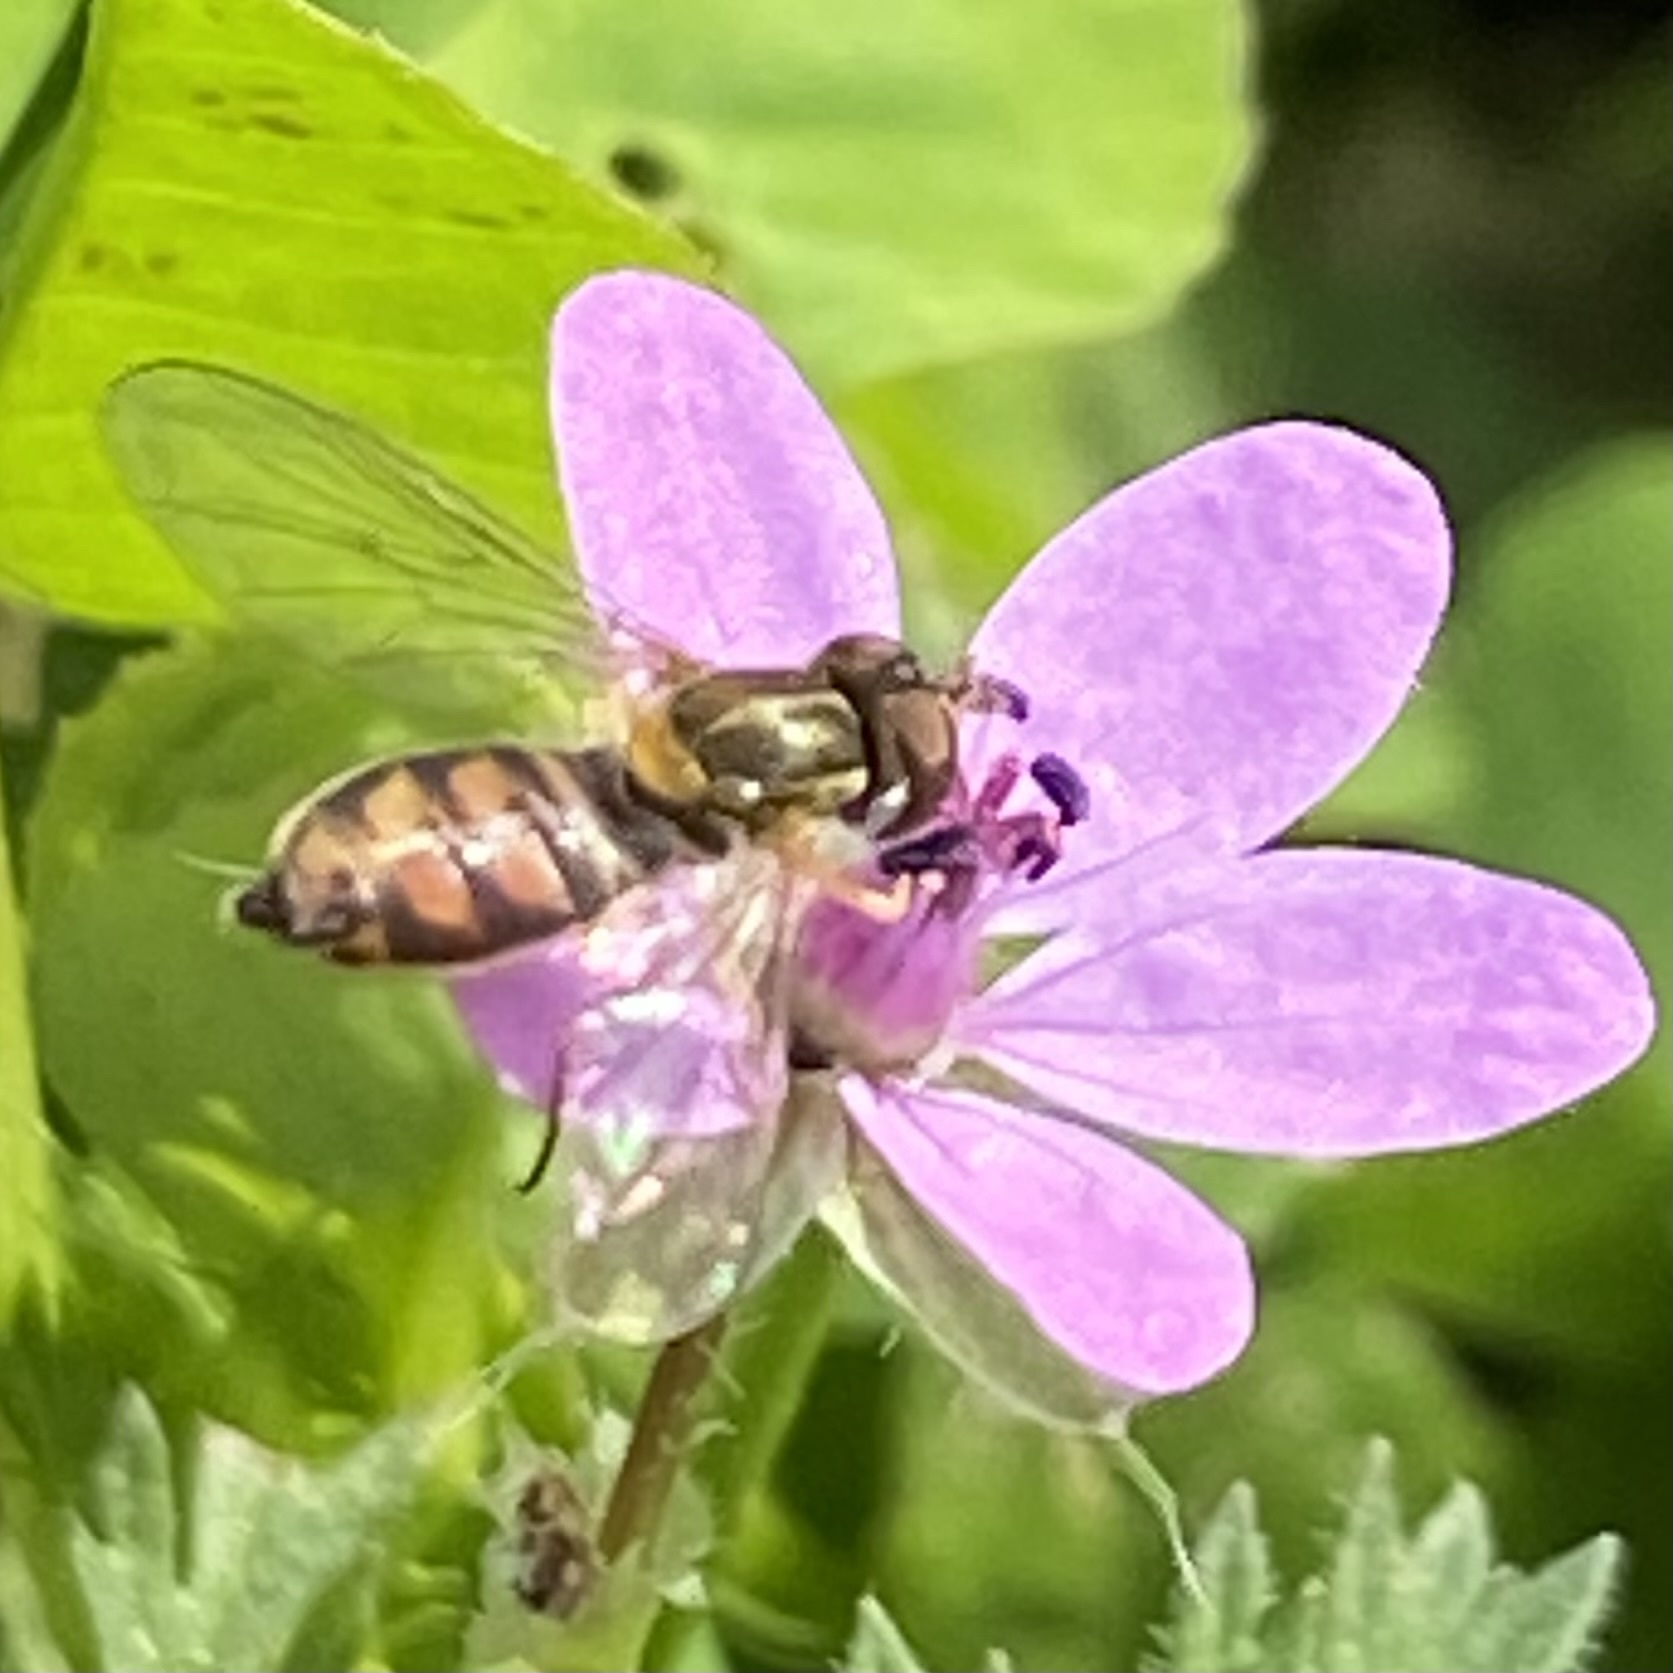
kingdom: Animalia
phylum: Arthropoda
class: Insecta
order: Diptera
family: Syrphidae
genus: Toxomerus
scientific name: Toxomerus marginatus
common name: Syrphid fly
